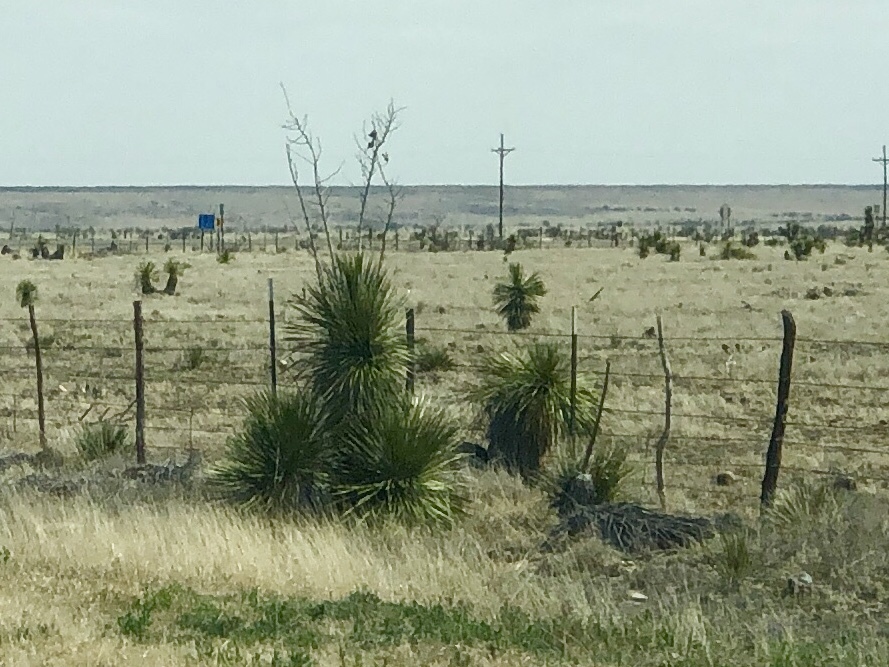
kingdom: Plantae
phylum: Tracheophyta
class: Liliopsida
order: Asparagales
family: Asparagaceae
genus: Yucca
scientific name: Yucca elata
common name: Palmella
